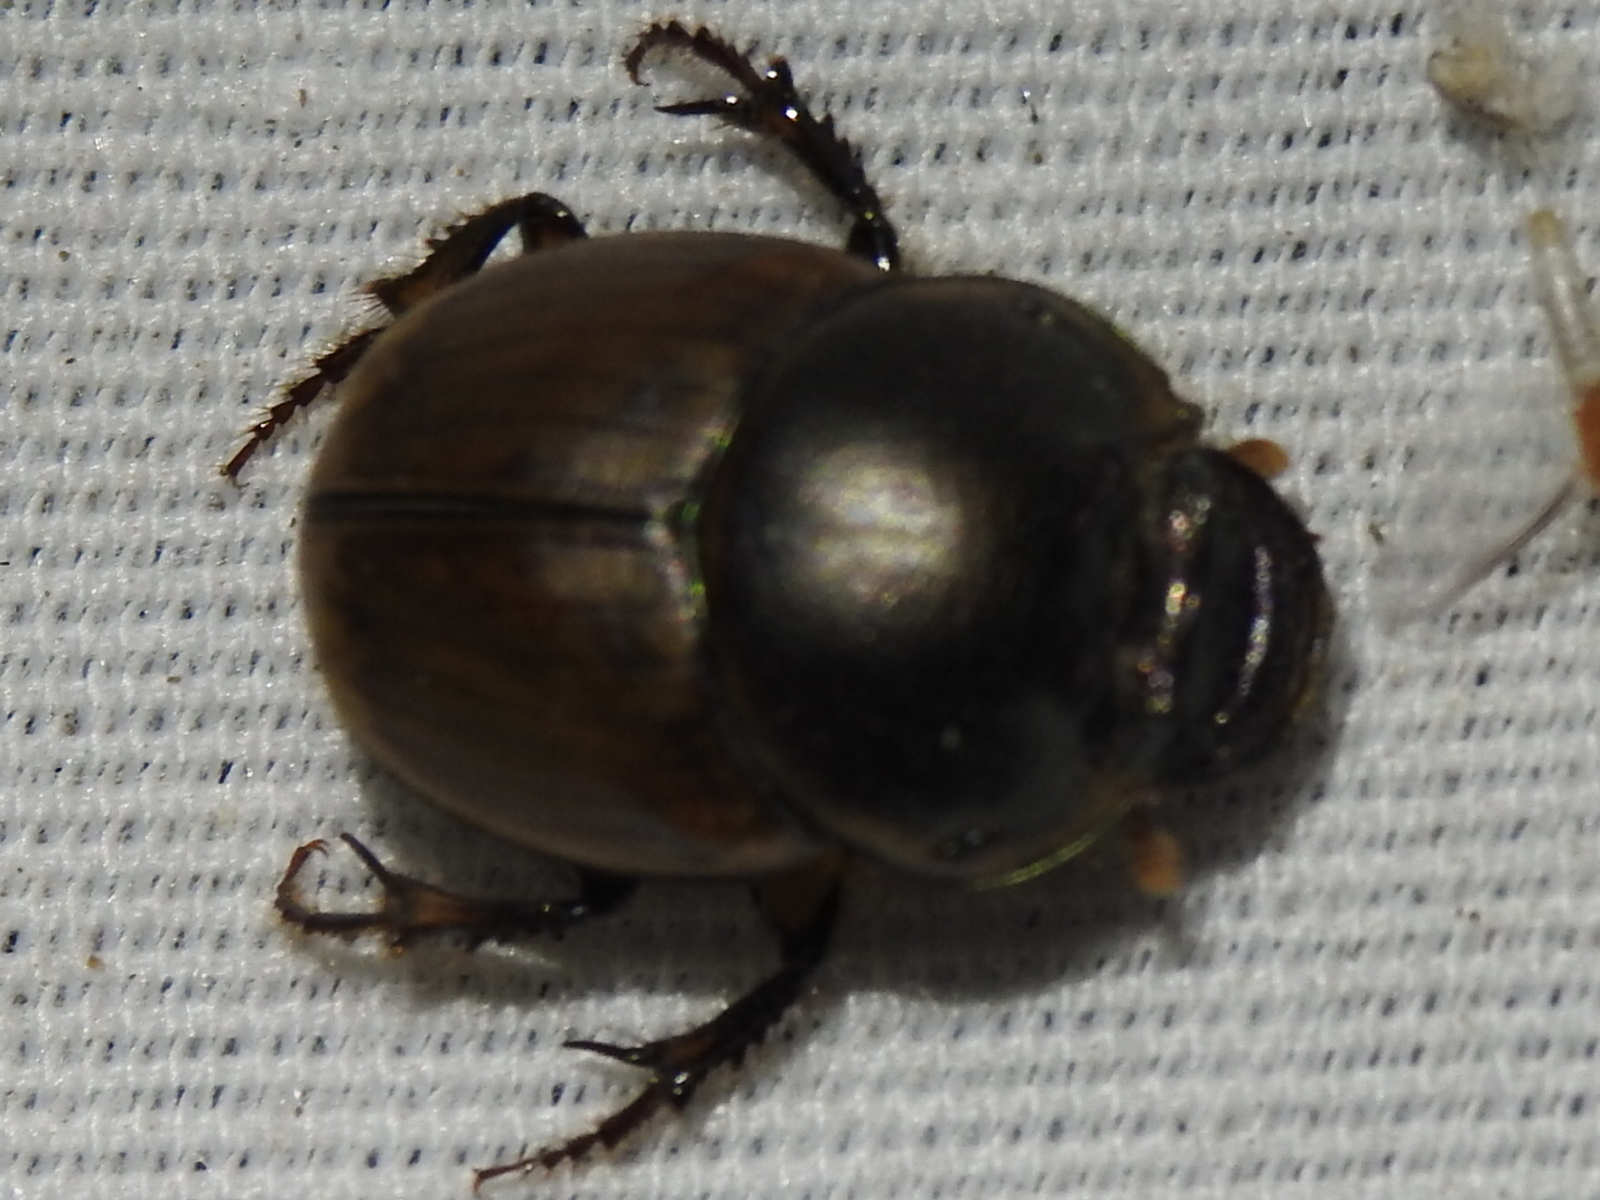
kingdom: Animalia
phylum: Arthropoda
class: Insecta
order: Coleoptera
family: Scarabaeidae
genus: Digitonthophagus
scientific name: Digitonthophagus gazella
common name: Brown dung beetle
